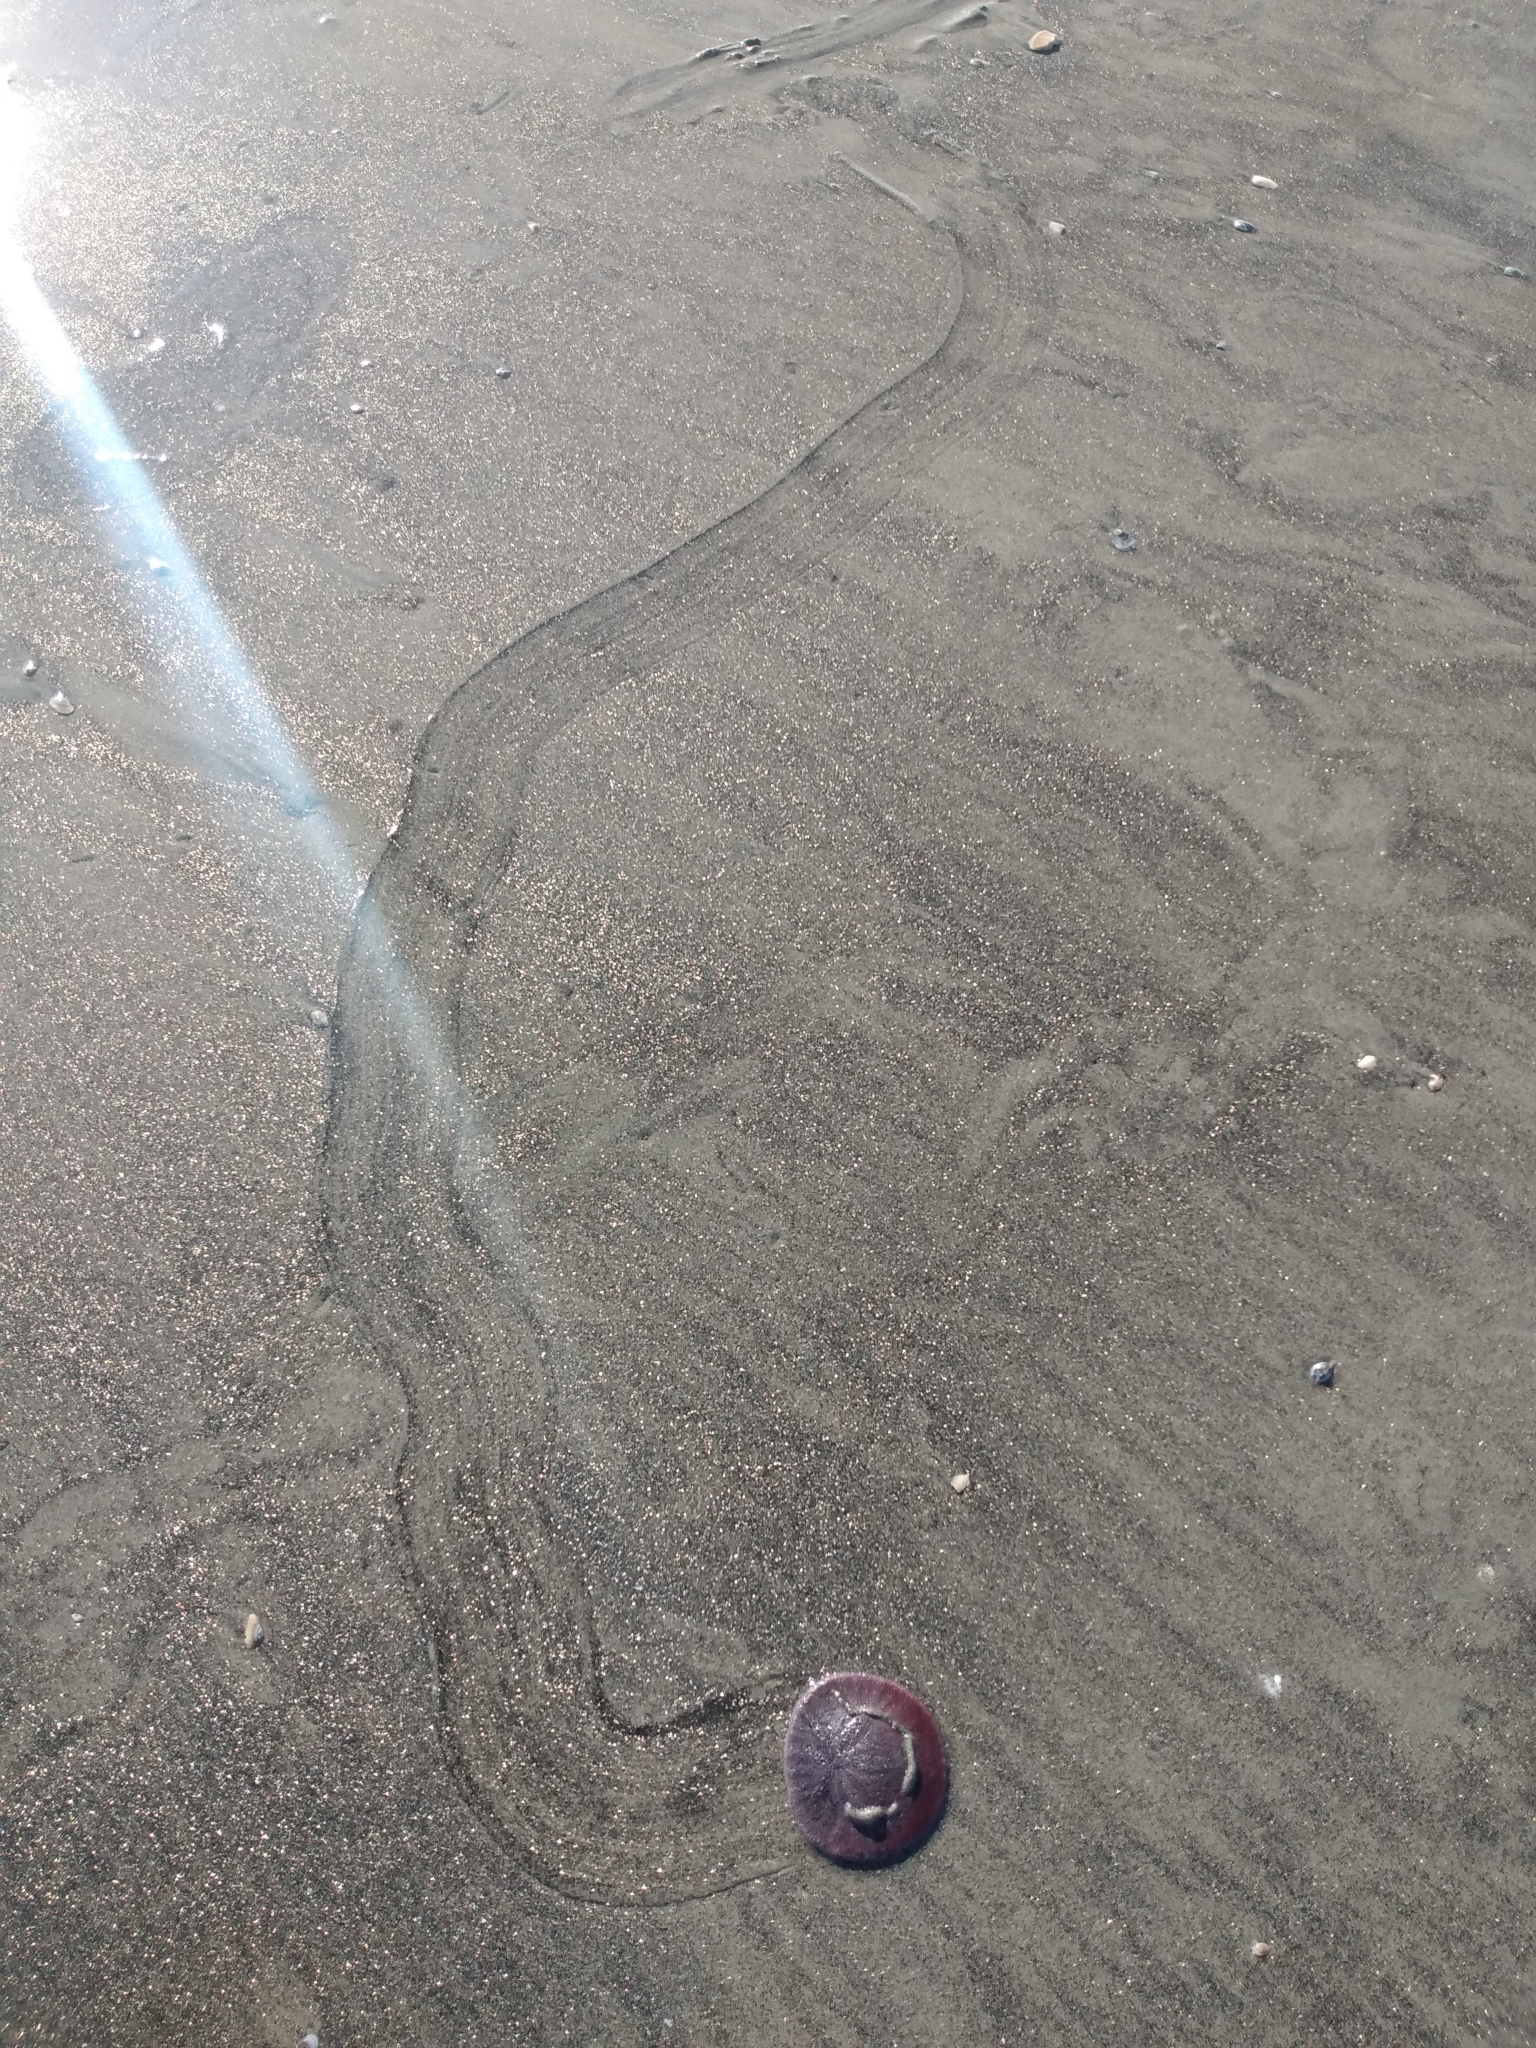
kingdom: Animalia
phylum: Echinodermata
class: Echinoidea
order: Echinolampadacea
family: Dendrasteridae
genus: Dendraster
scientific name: Dendraster excentricus
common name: Eccentric sand dollar sea urchin
